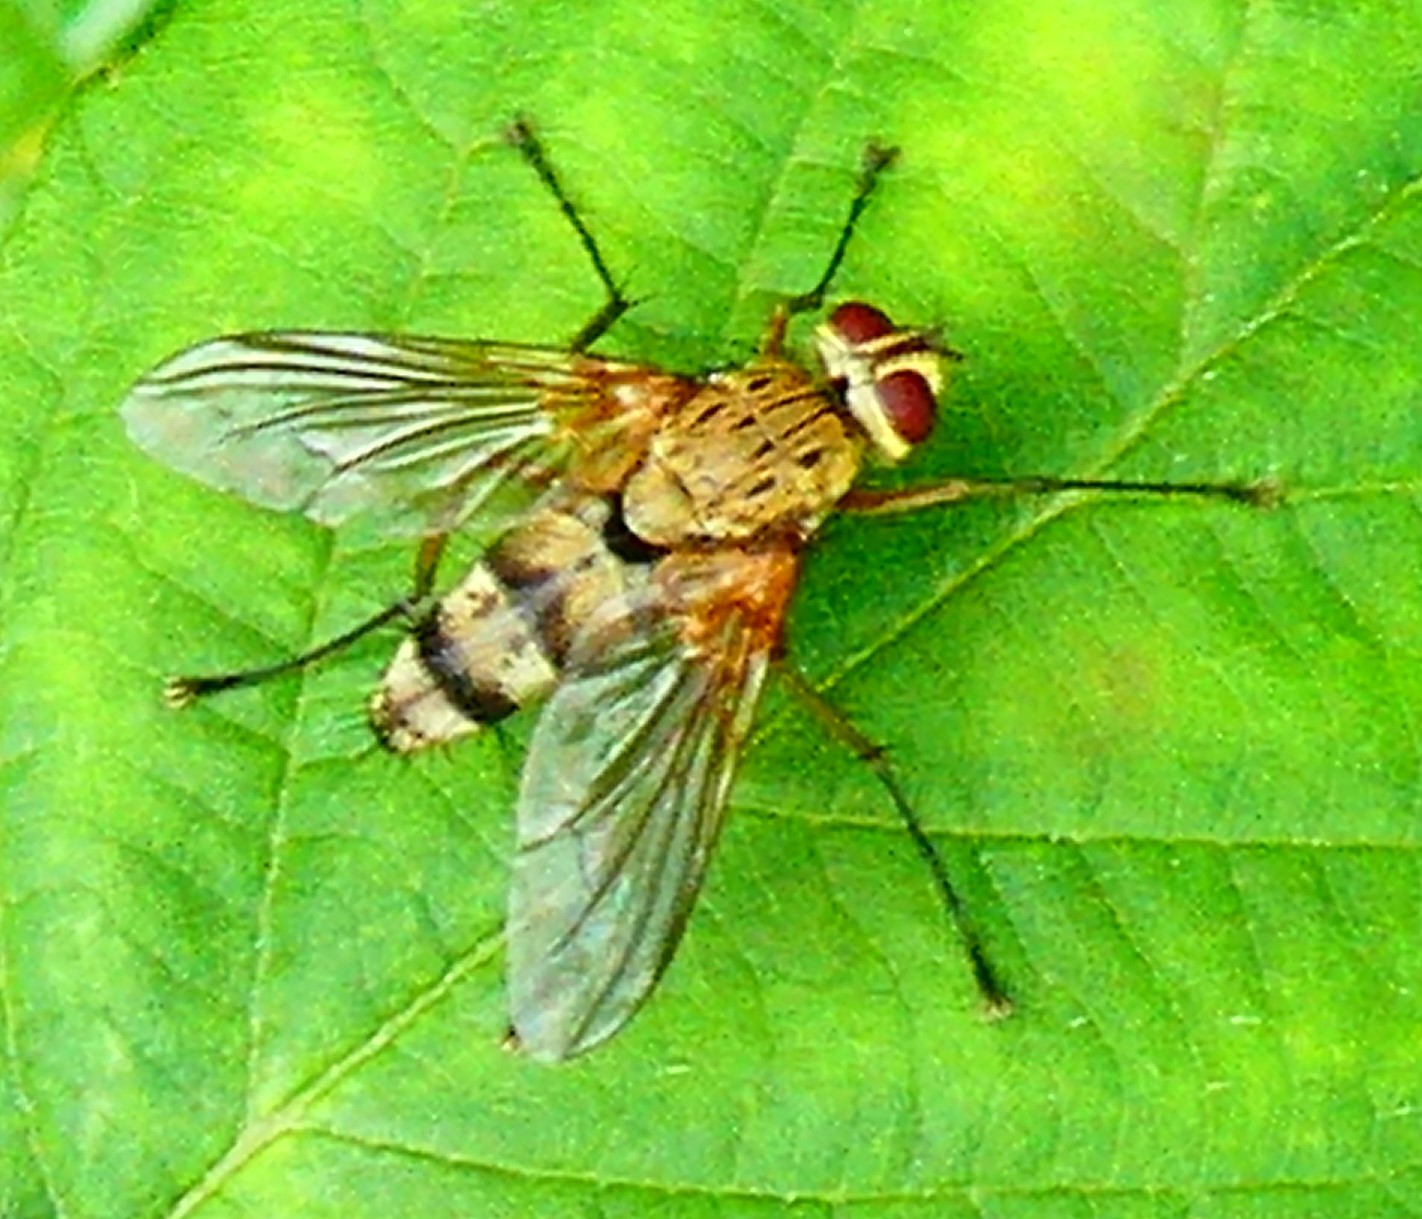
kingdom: Animalia
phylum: Arthropoda
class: Insecta
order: Diptera
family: Tachinidae
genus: Dexiosoma
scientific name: Dexiosoma caninum
